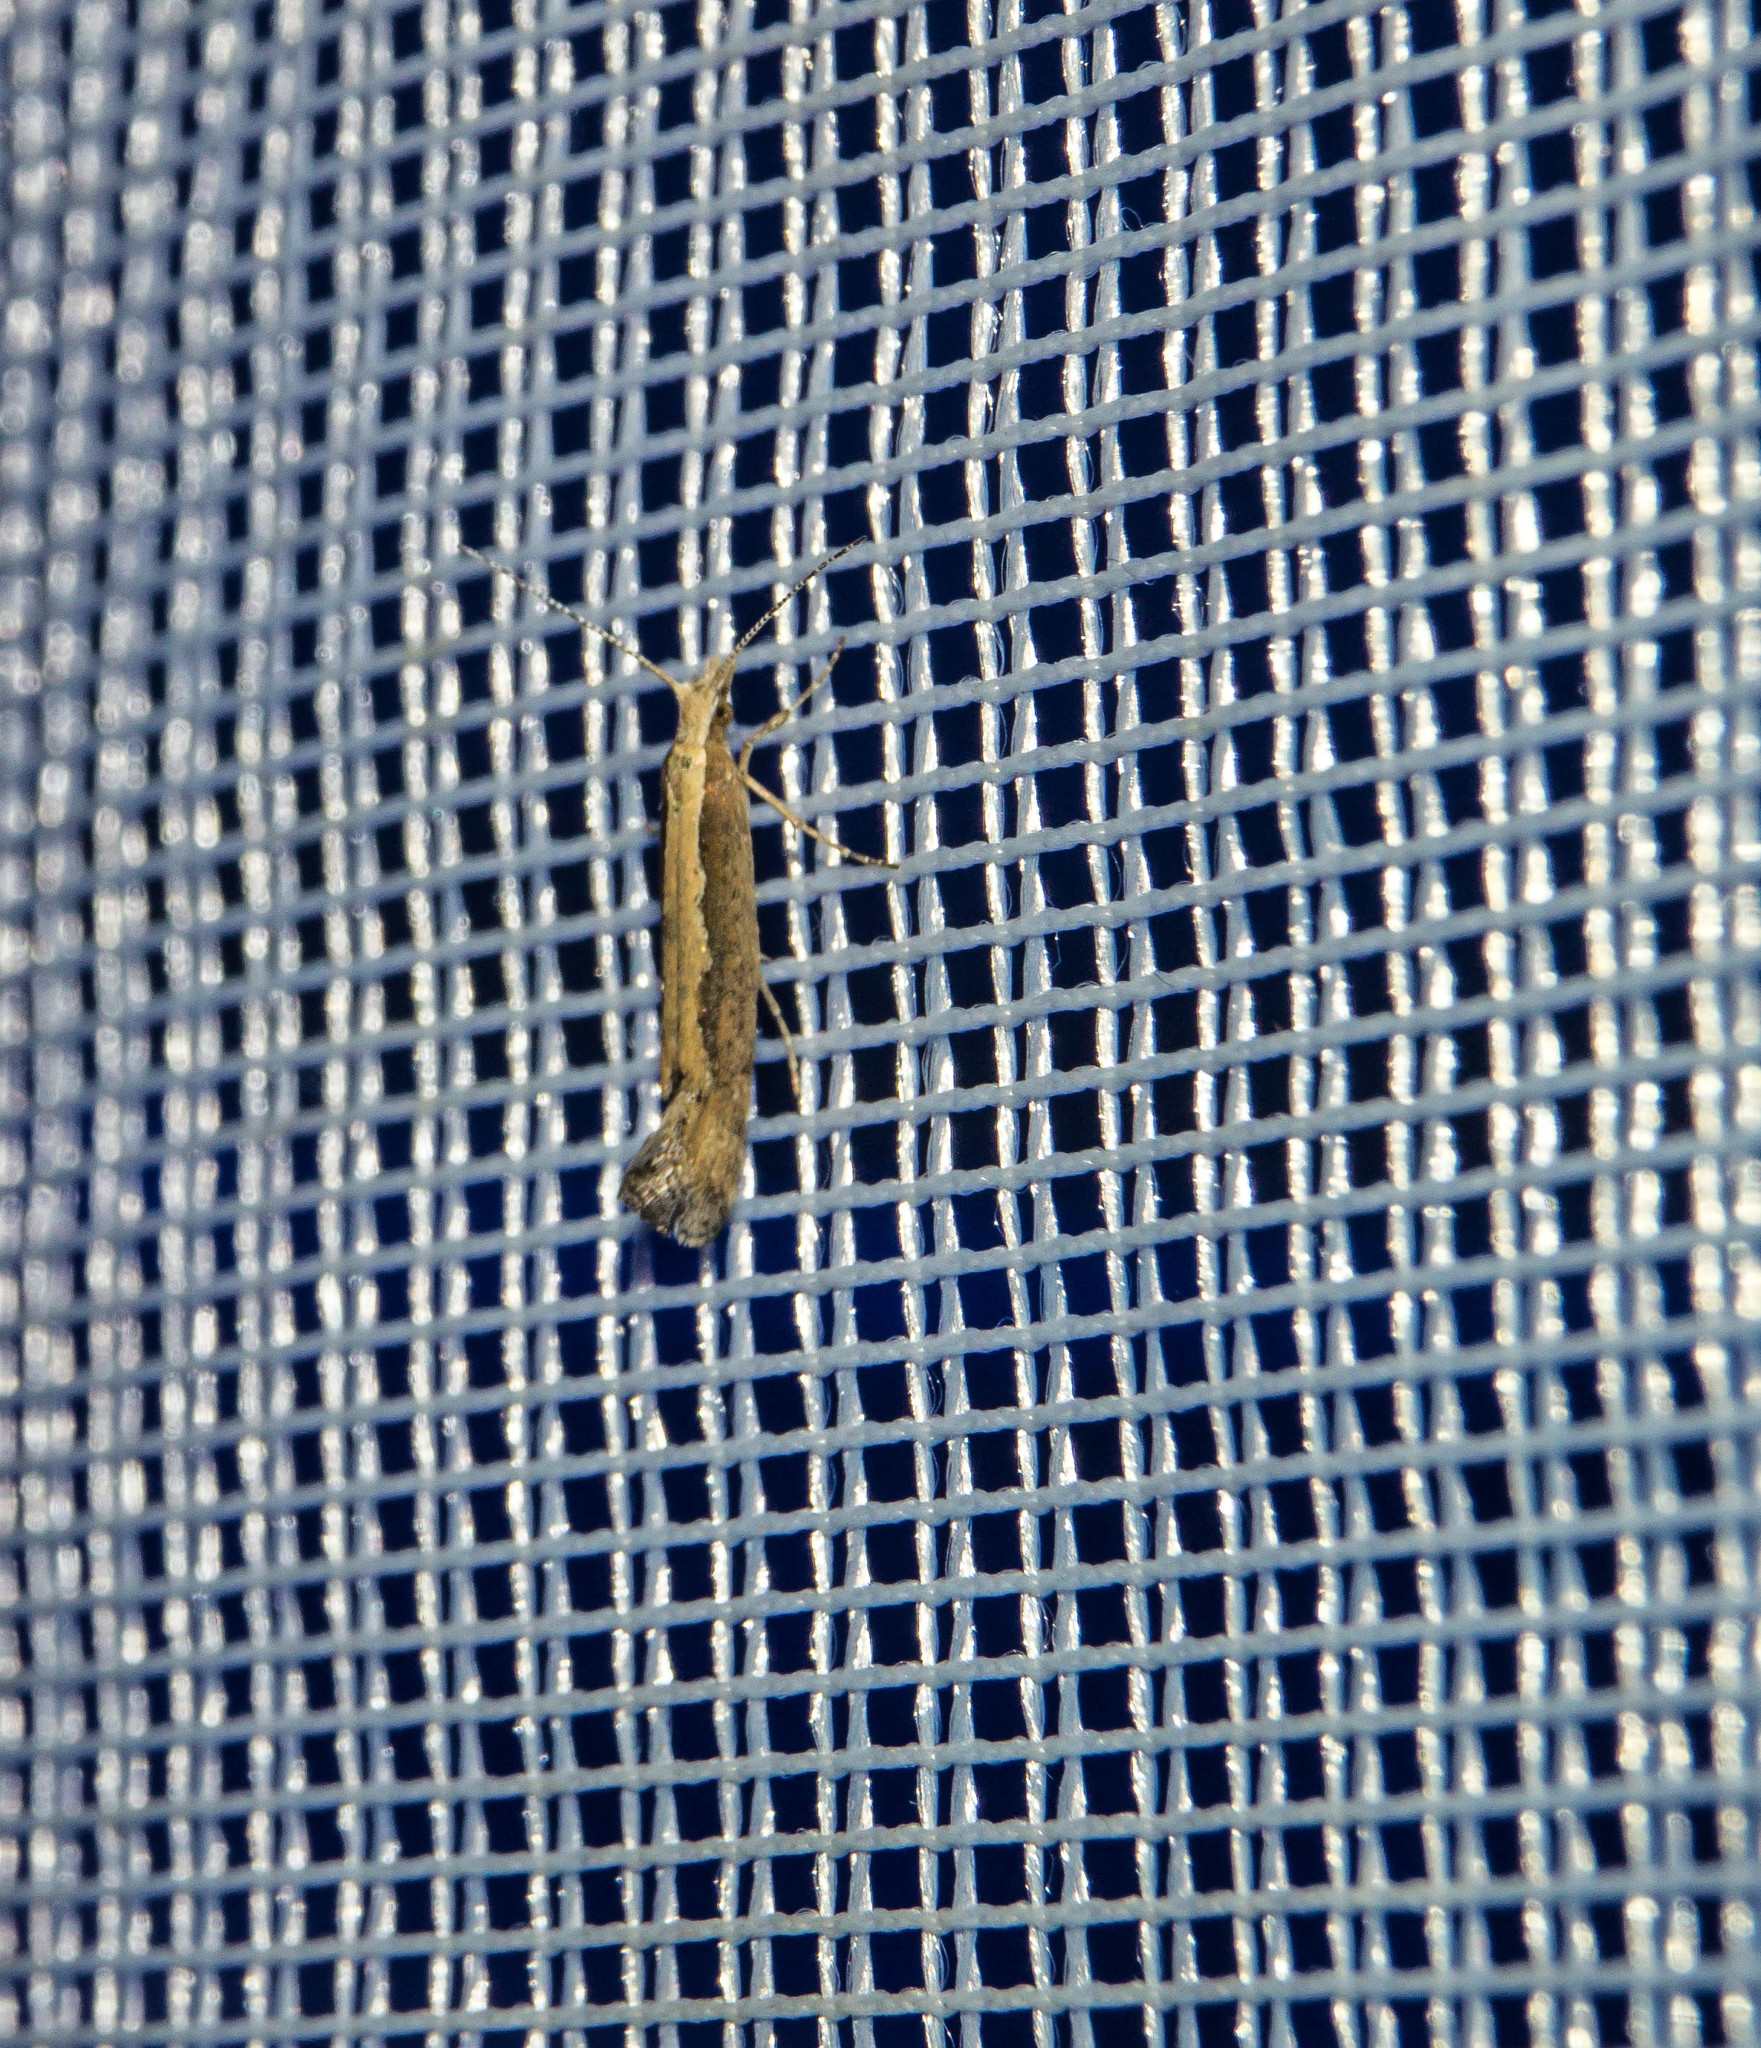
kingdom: Animalia
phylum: Arthropoda
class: Insecta
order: Lepidoptera
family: Plutellidae
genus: Plutella
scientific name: Plutella xylostella
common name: Diamond-back moth
